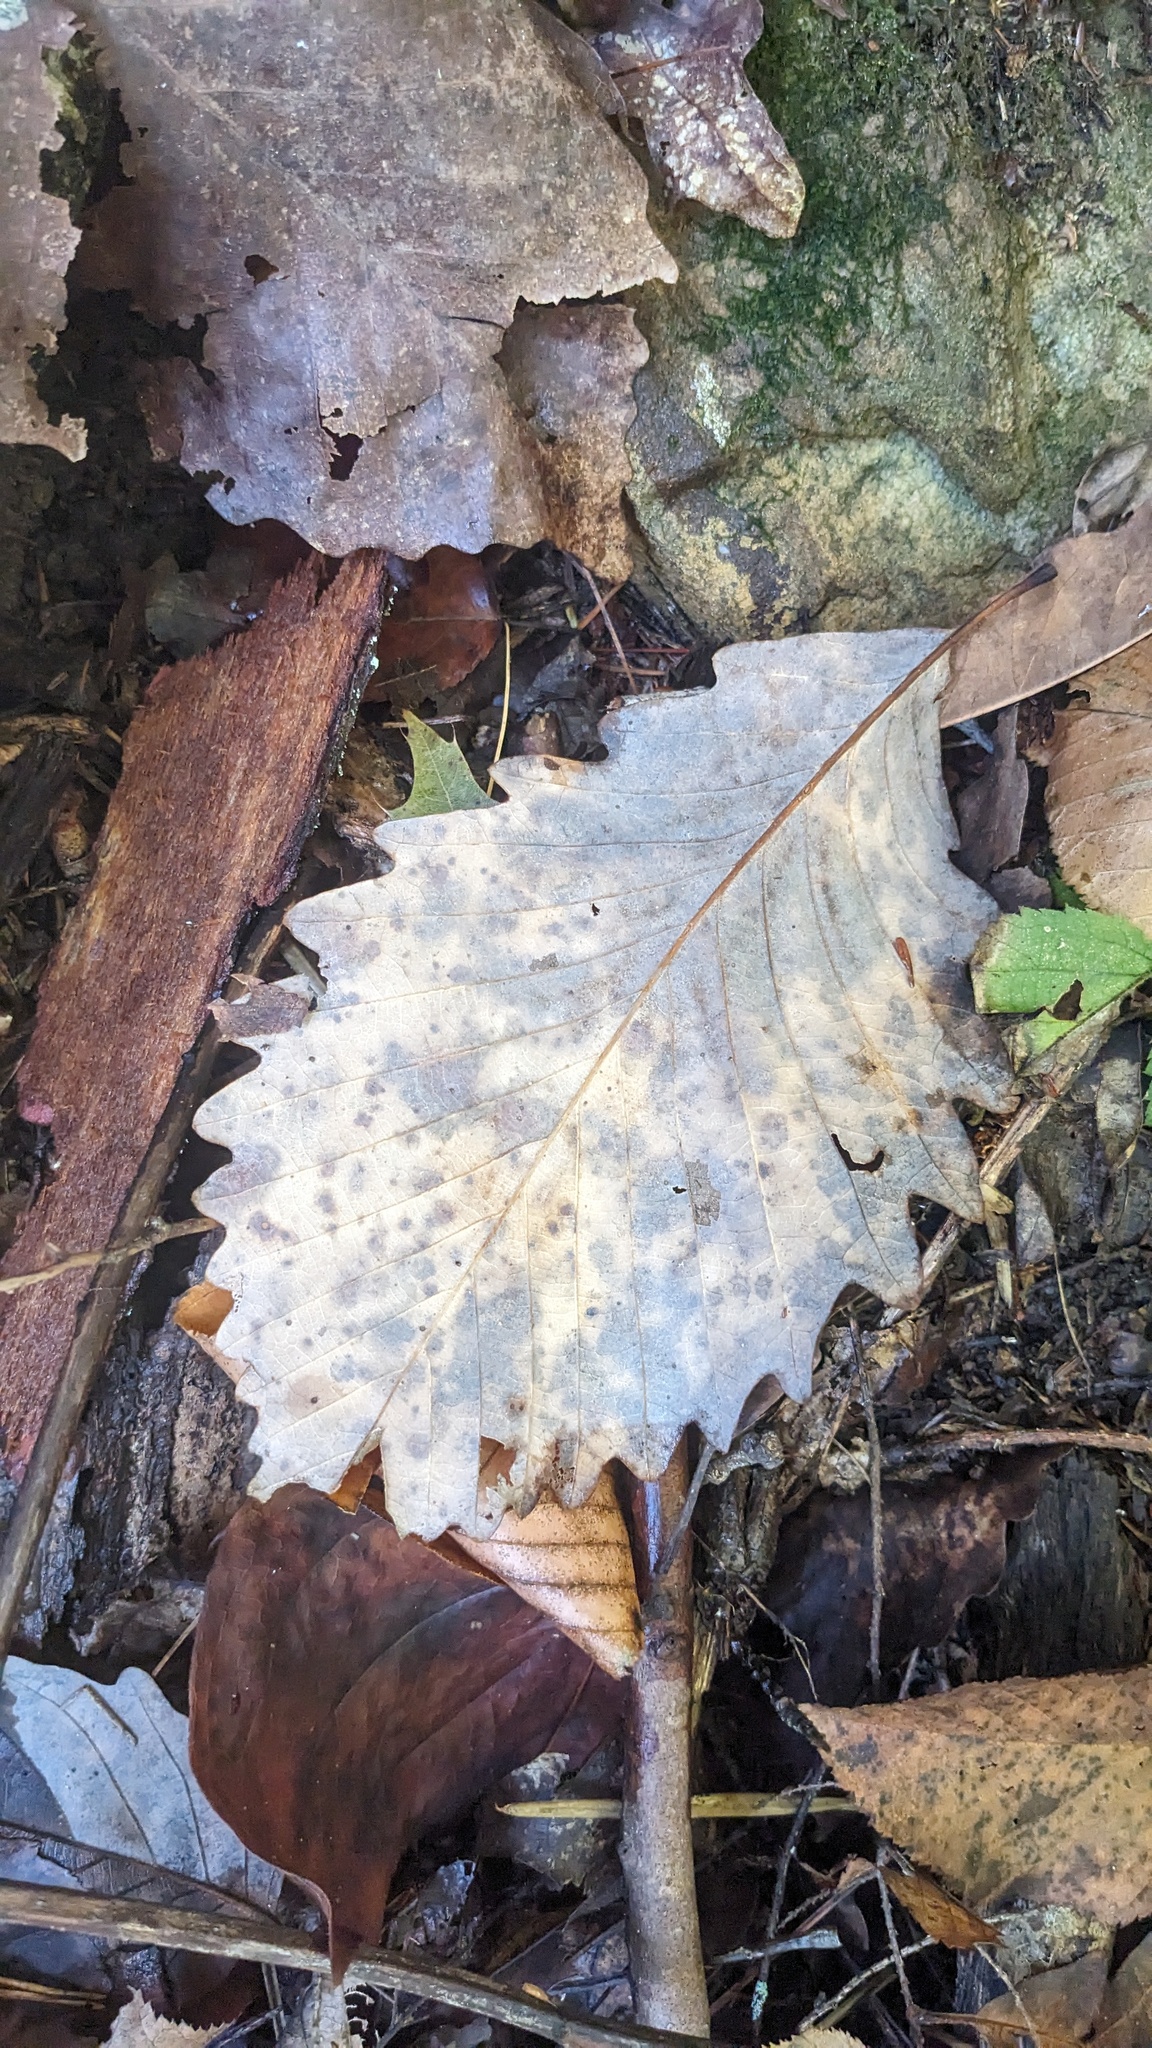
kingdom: Plantae
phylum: Tracheophyta
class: Magnoliopsida
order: Fagales
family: Fagaceae
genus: Quercus
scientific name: Quercus montana
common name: Chestnut oak
